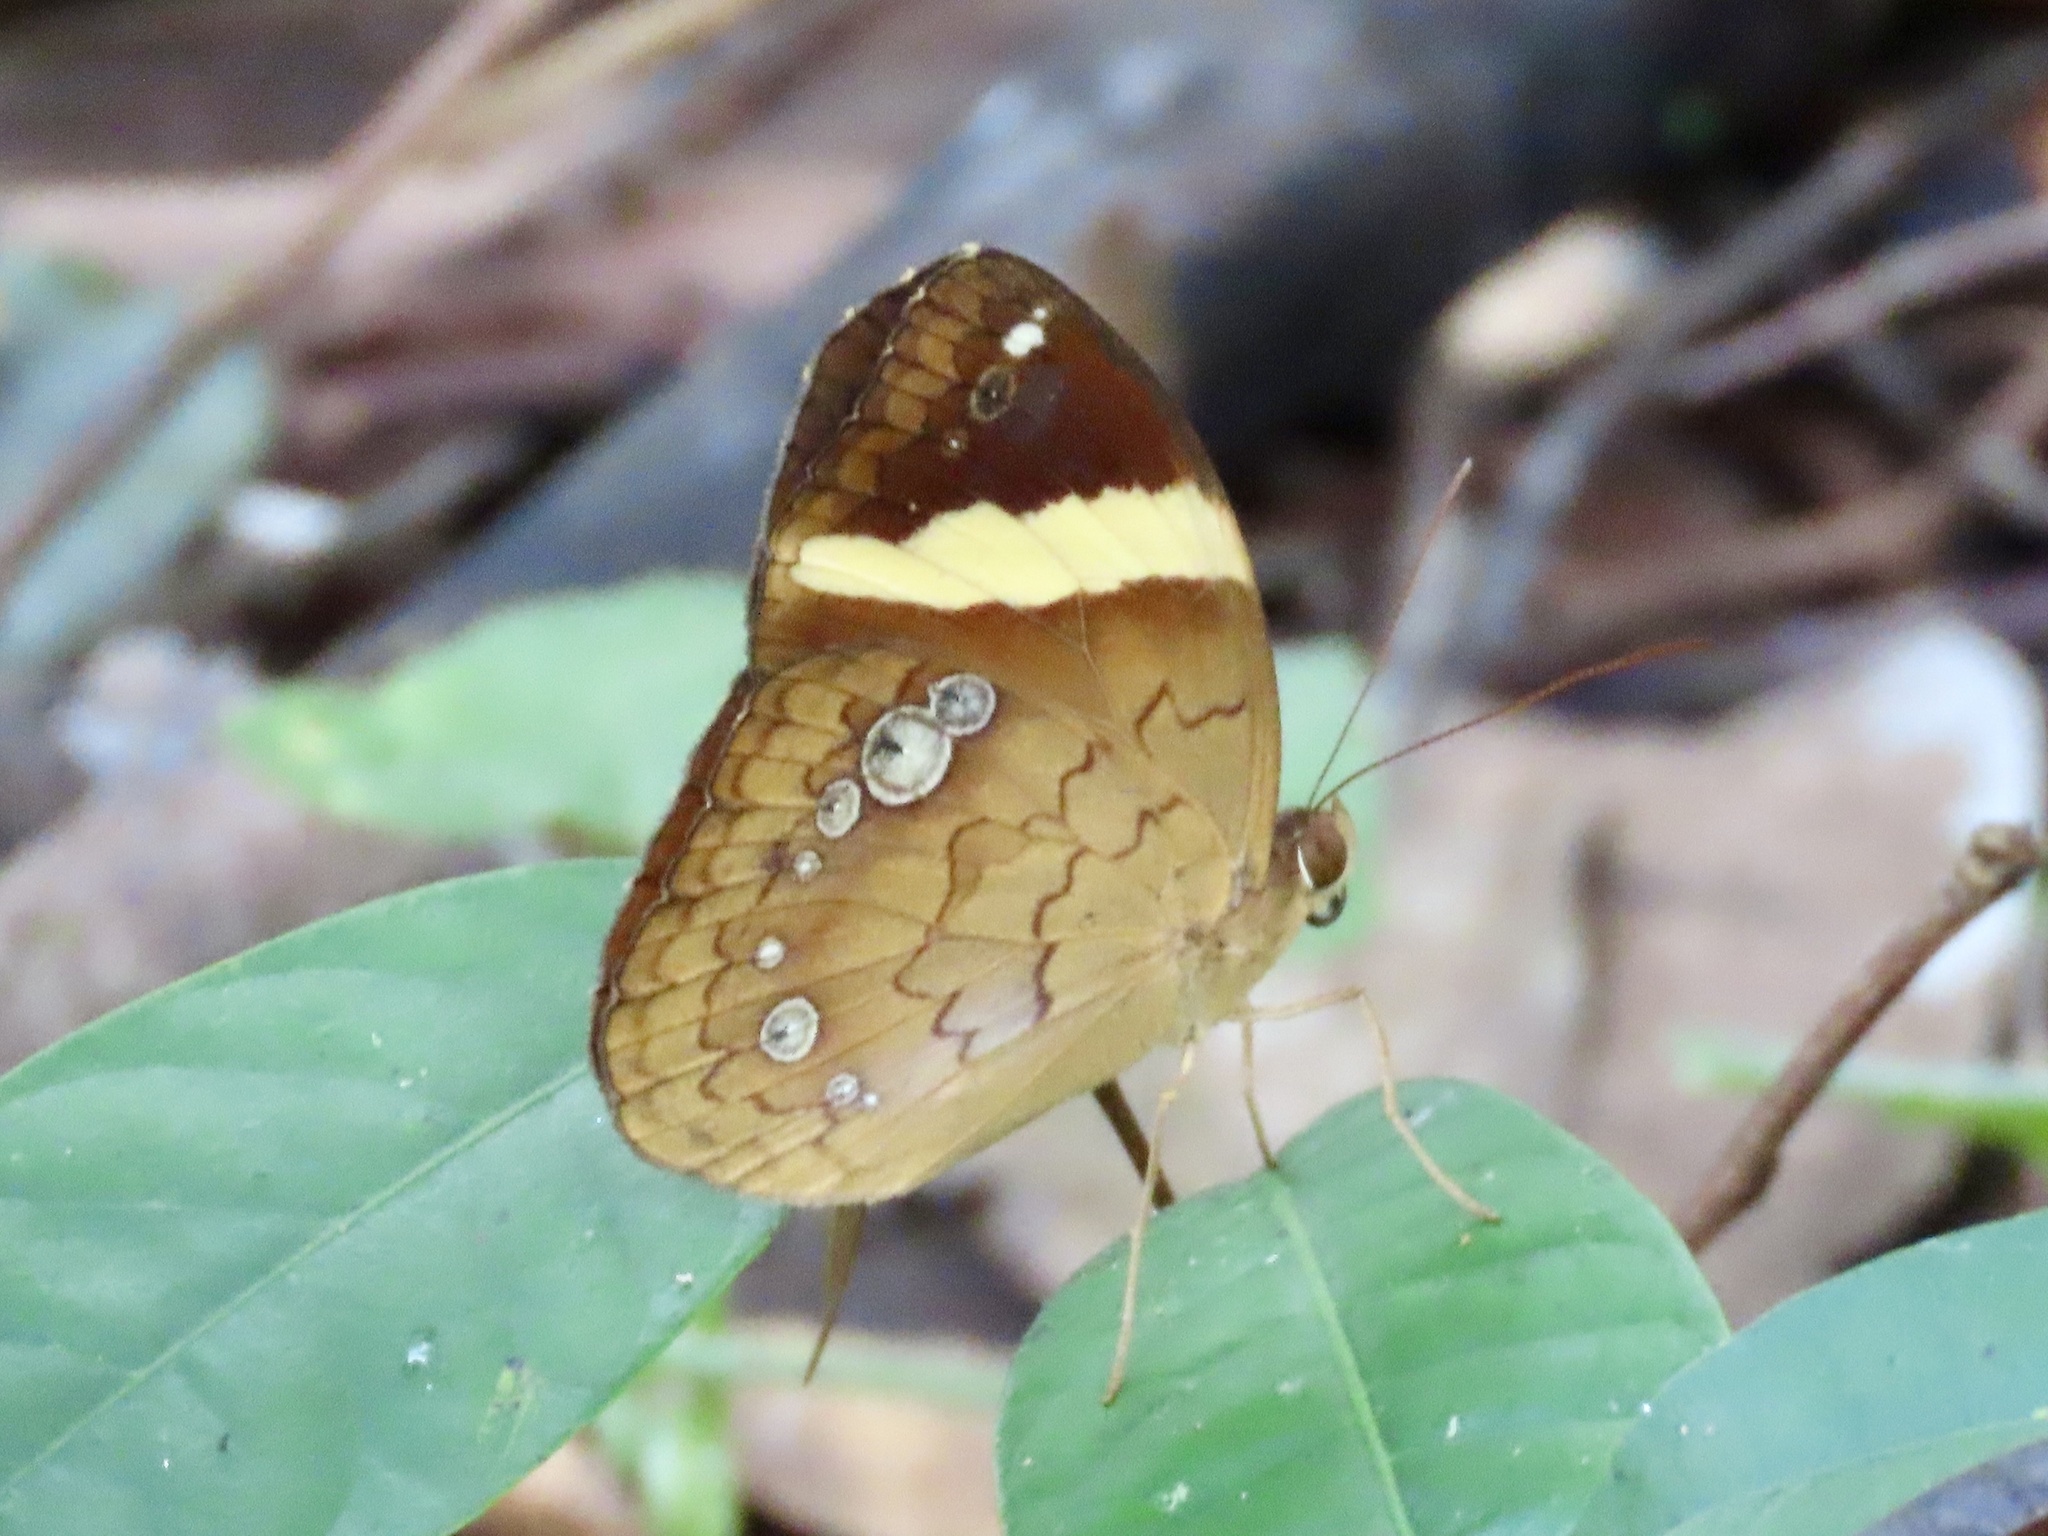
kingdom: Animalia
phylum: Arthropoda
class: Insecta
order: Lepidoptera
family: Nymphalidae
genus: Xanthotaenia
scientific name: Xanthotaenia busiris
